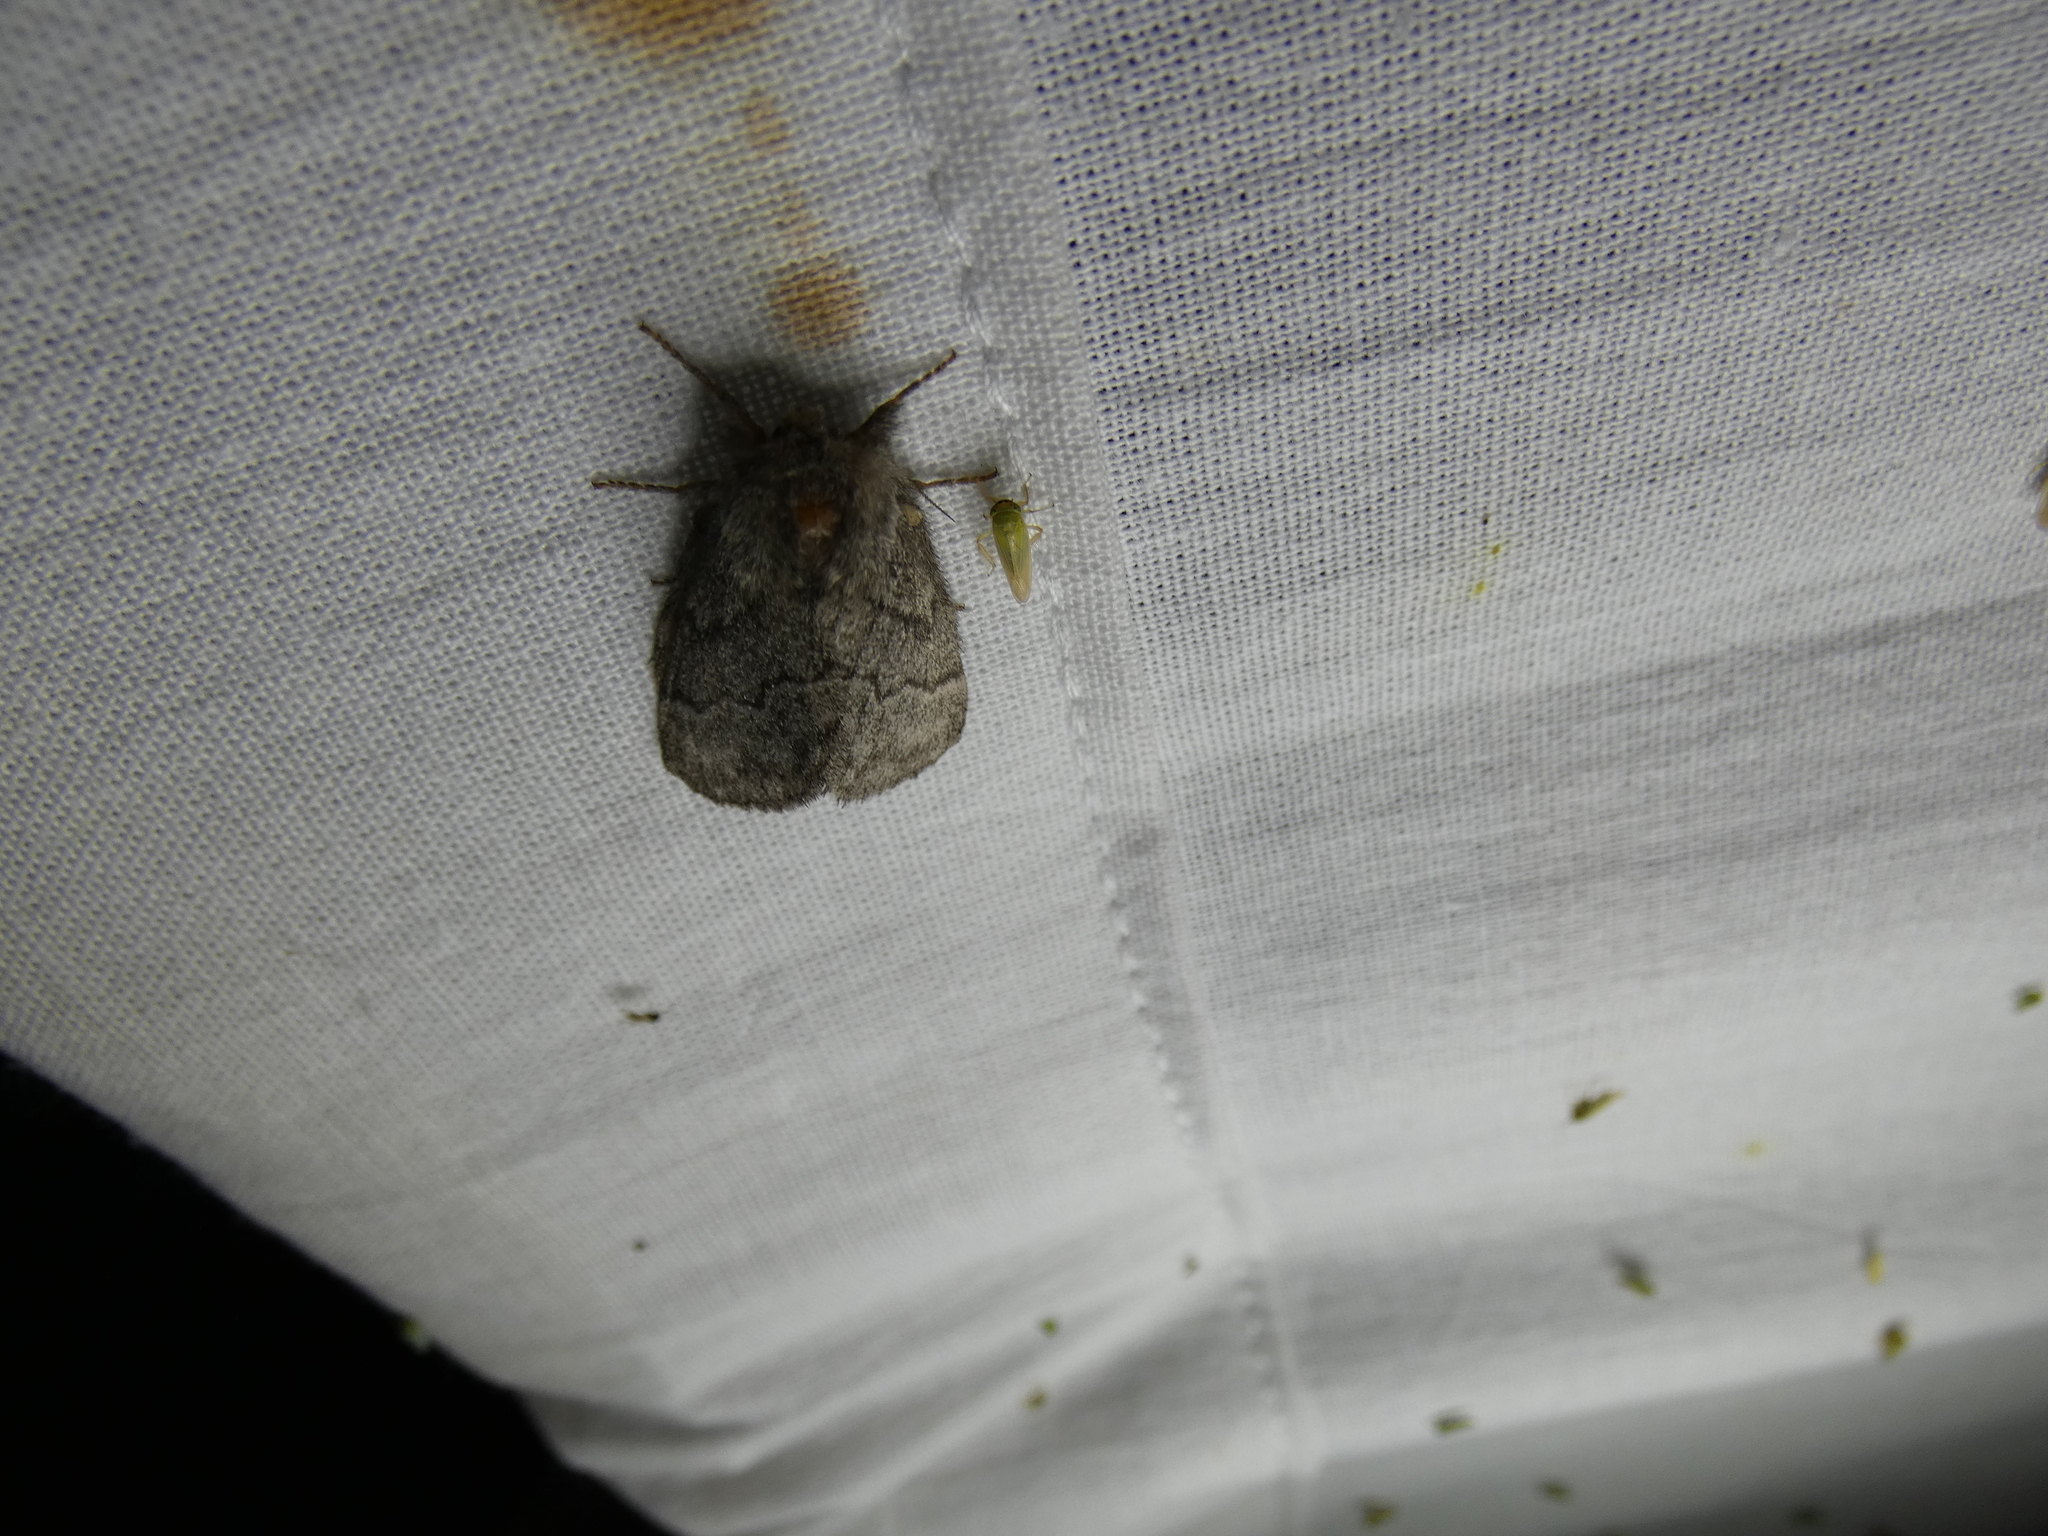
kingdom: Animalia
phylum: Arthropoda
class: Insecta
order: Lepidoptera
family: Lasiocampidae
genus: Trichiura
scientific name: Trichiura crataegi
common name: Pale eggar
